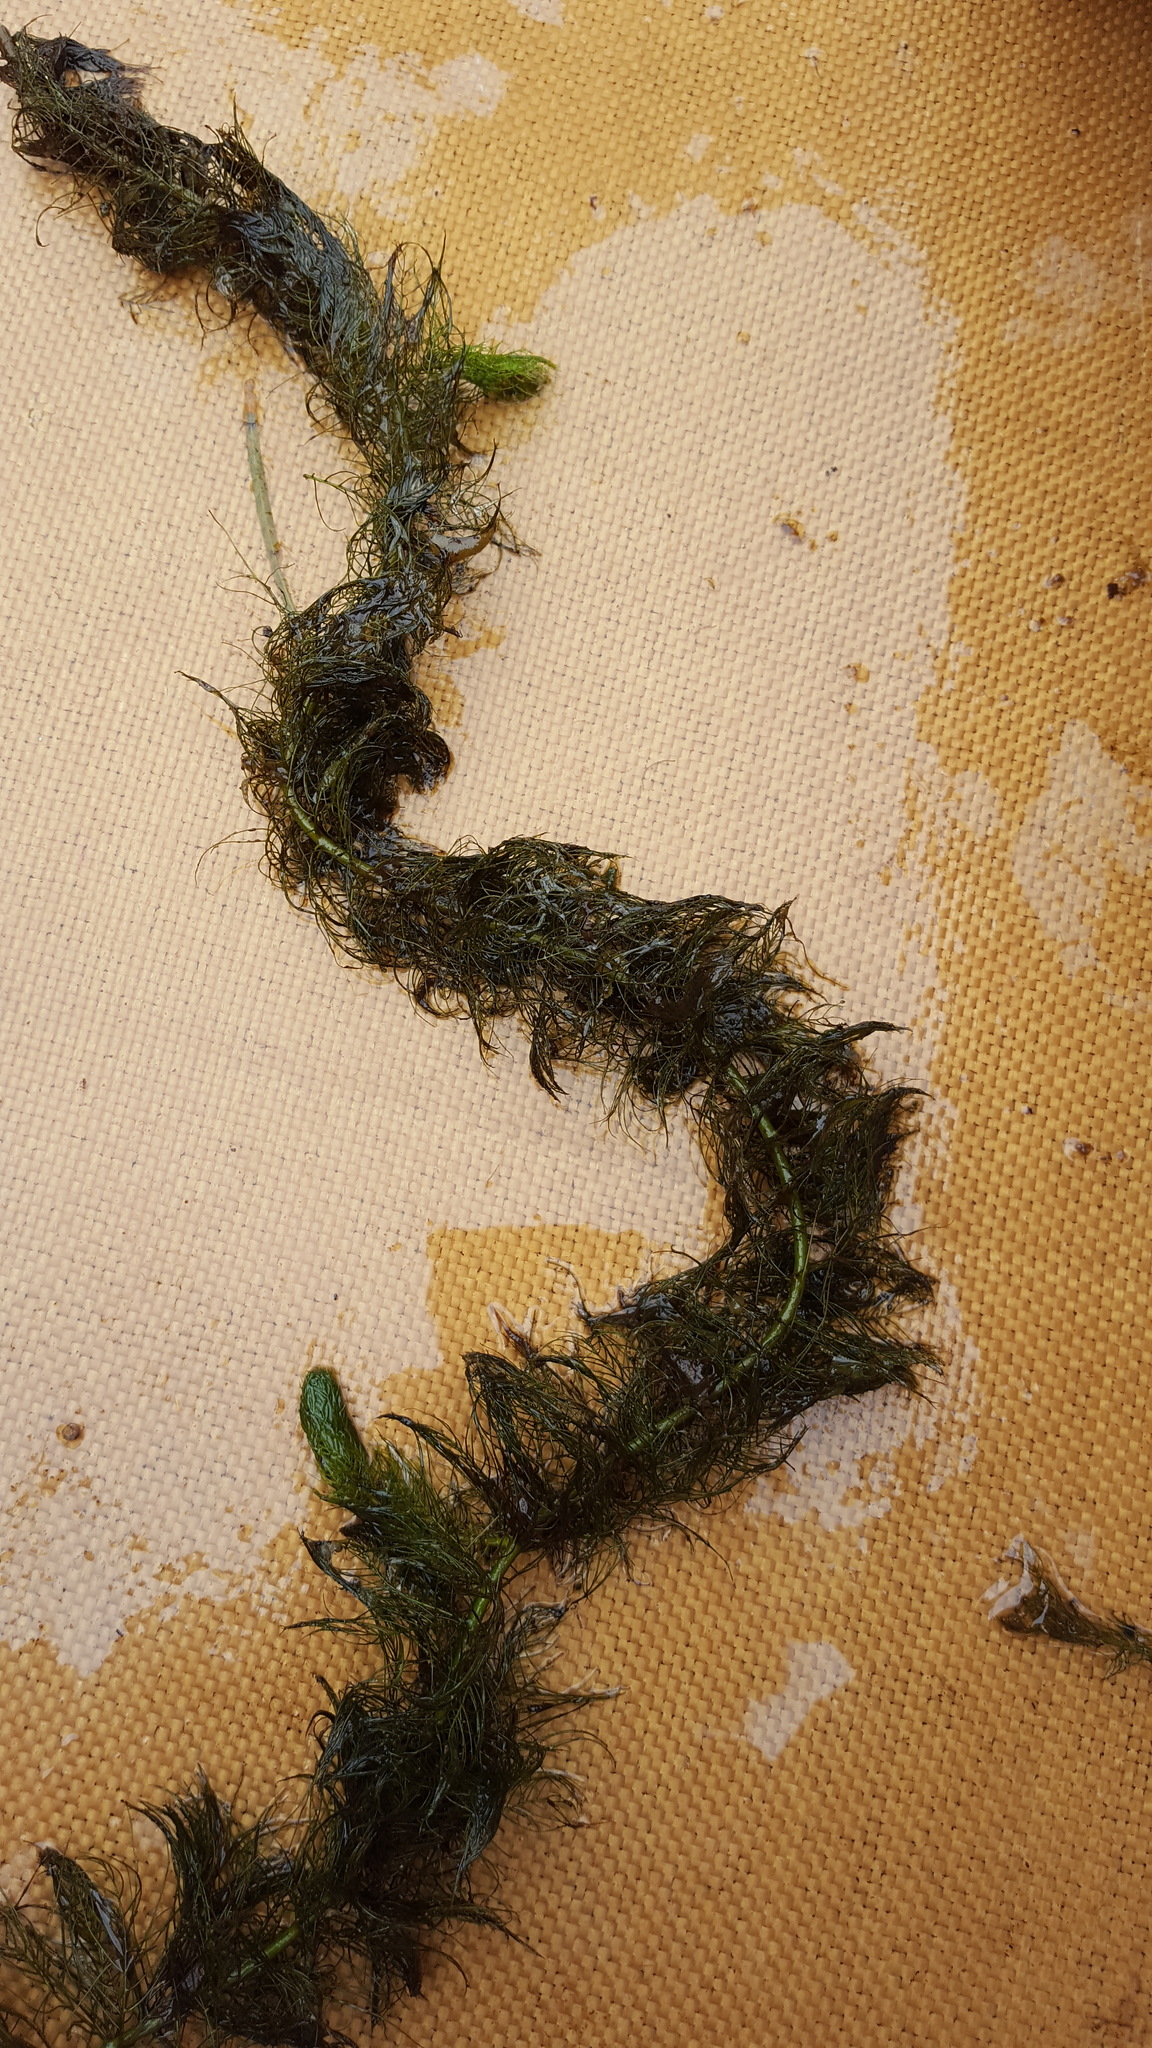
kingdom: Plantae
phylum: Tracheophyta
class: Magnoliopsida
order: Saxifragales
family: Haloragaceae
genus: Myriophyllum
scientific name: Myriophyllum verticillatum
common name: Whorled water-milfoil
